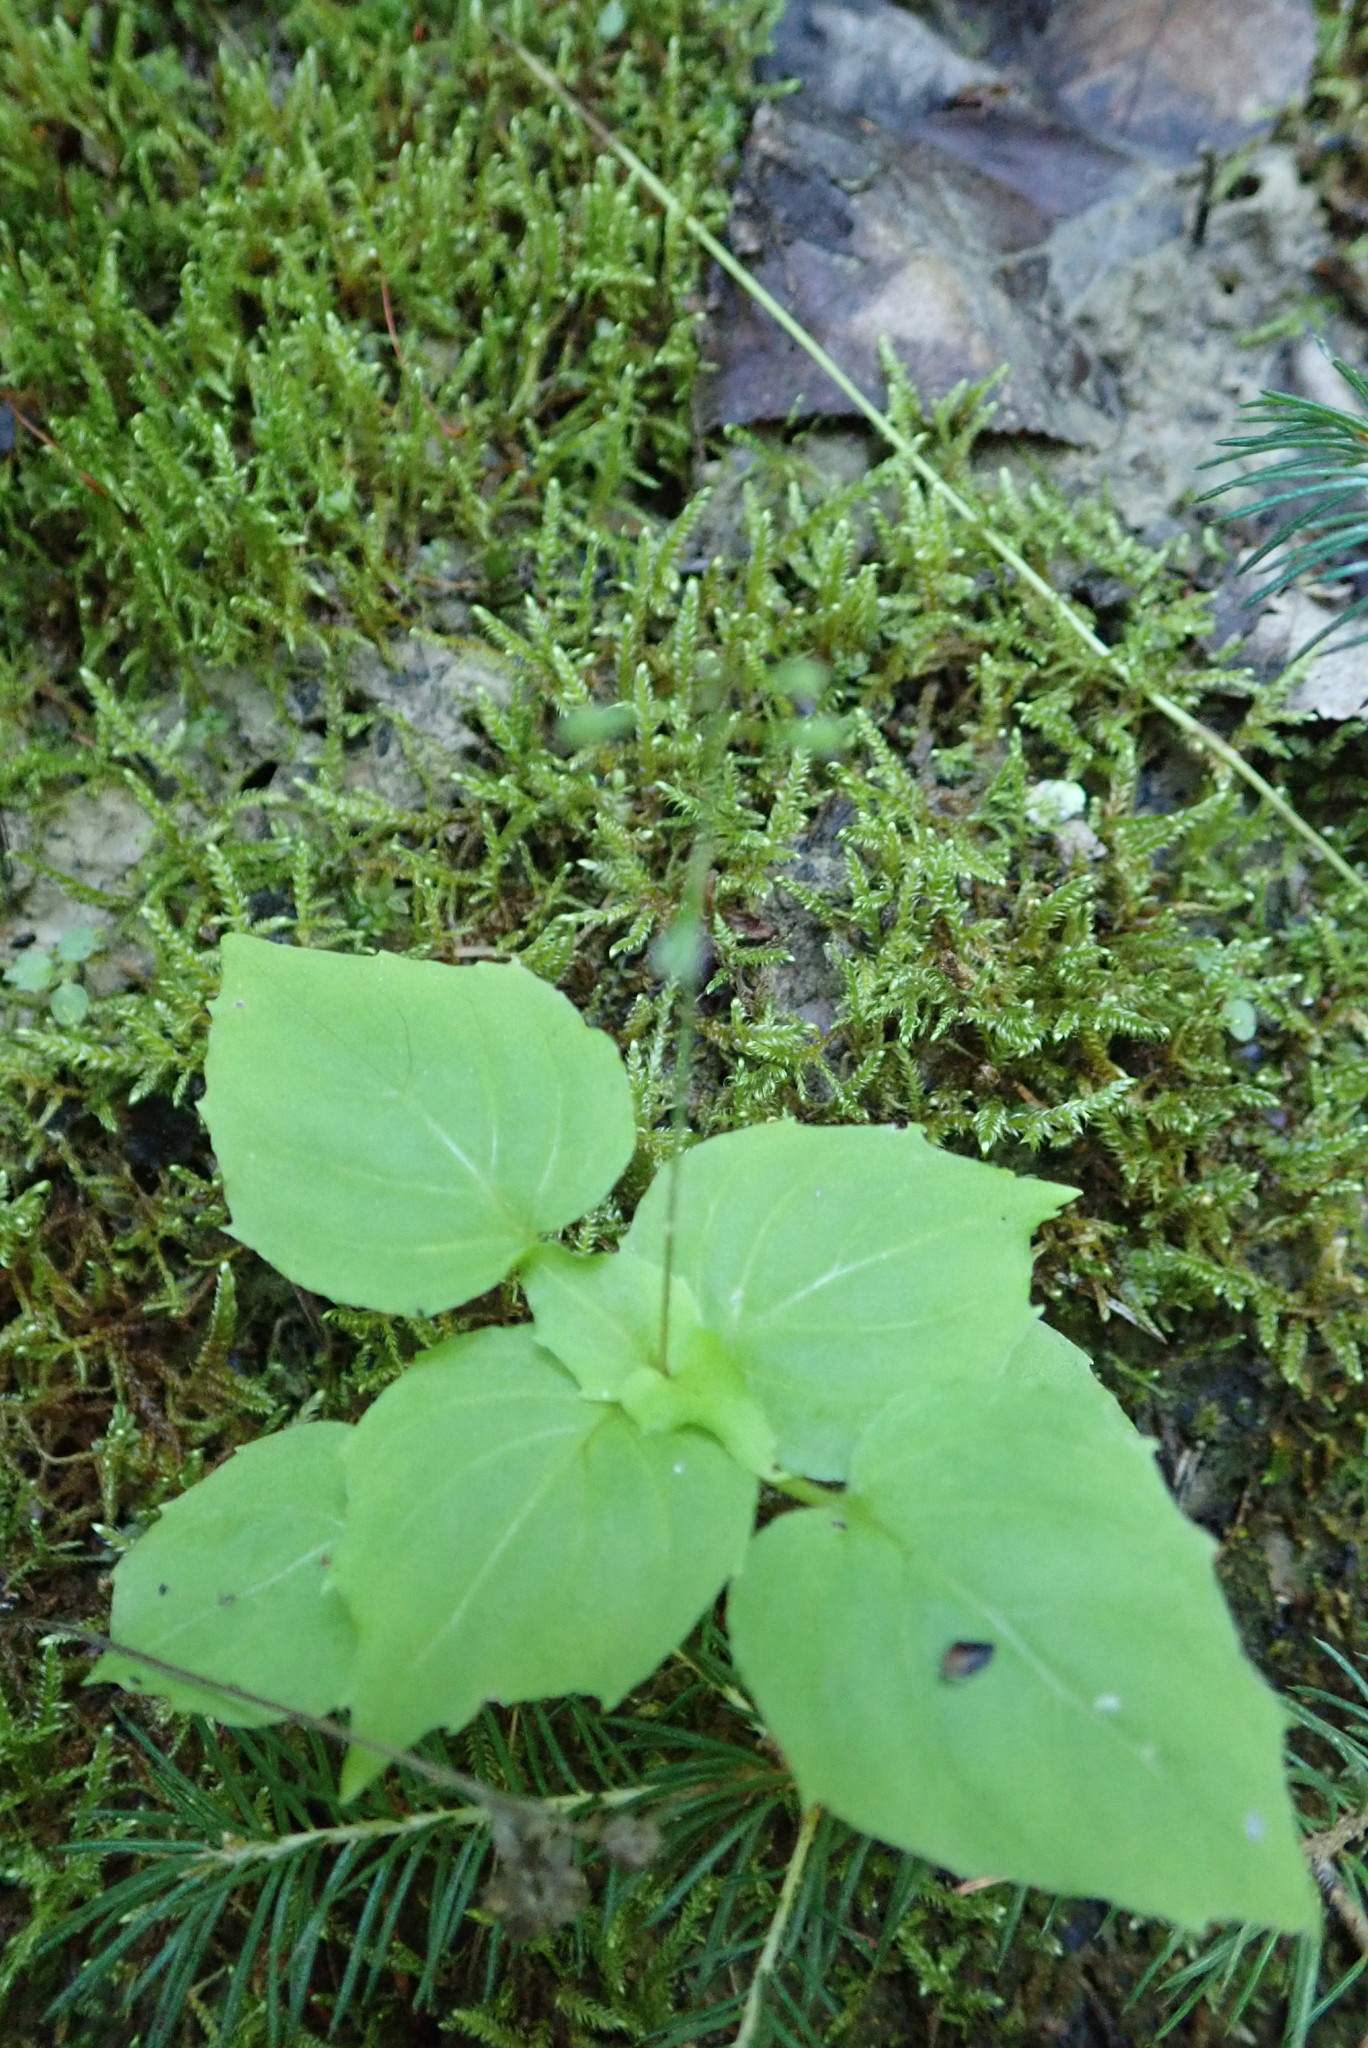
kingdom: Plantae
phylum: Tracheophyta
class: Magnoliopsida
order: Myrtales
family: Onagraceae
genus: Circaea
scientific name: Circaea alpina
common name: Alpine enchanter's-nightshade
